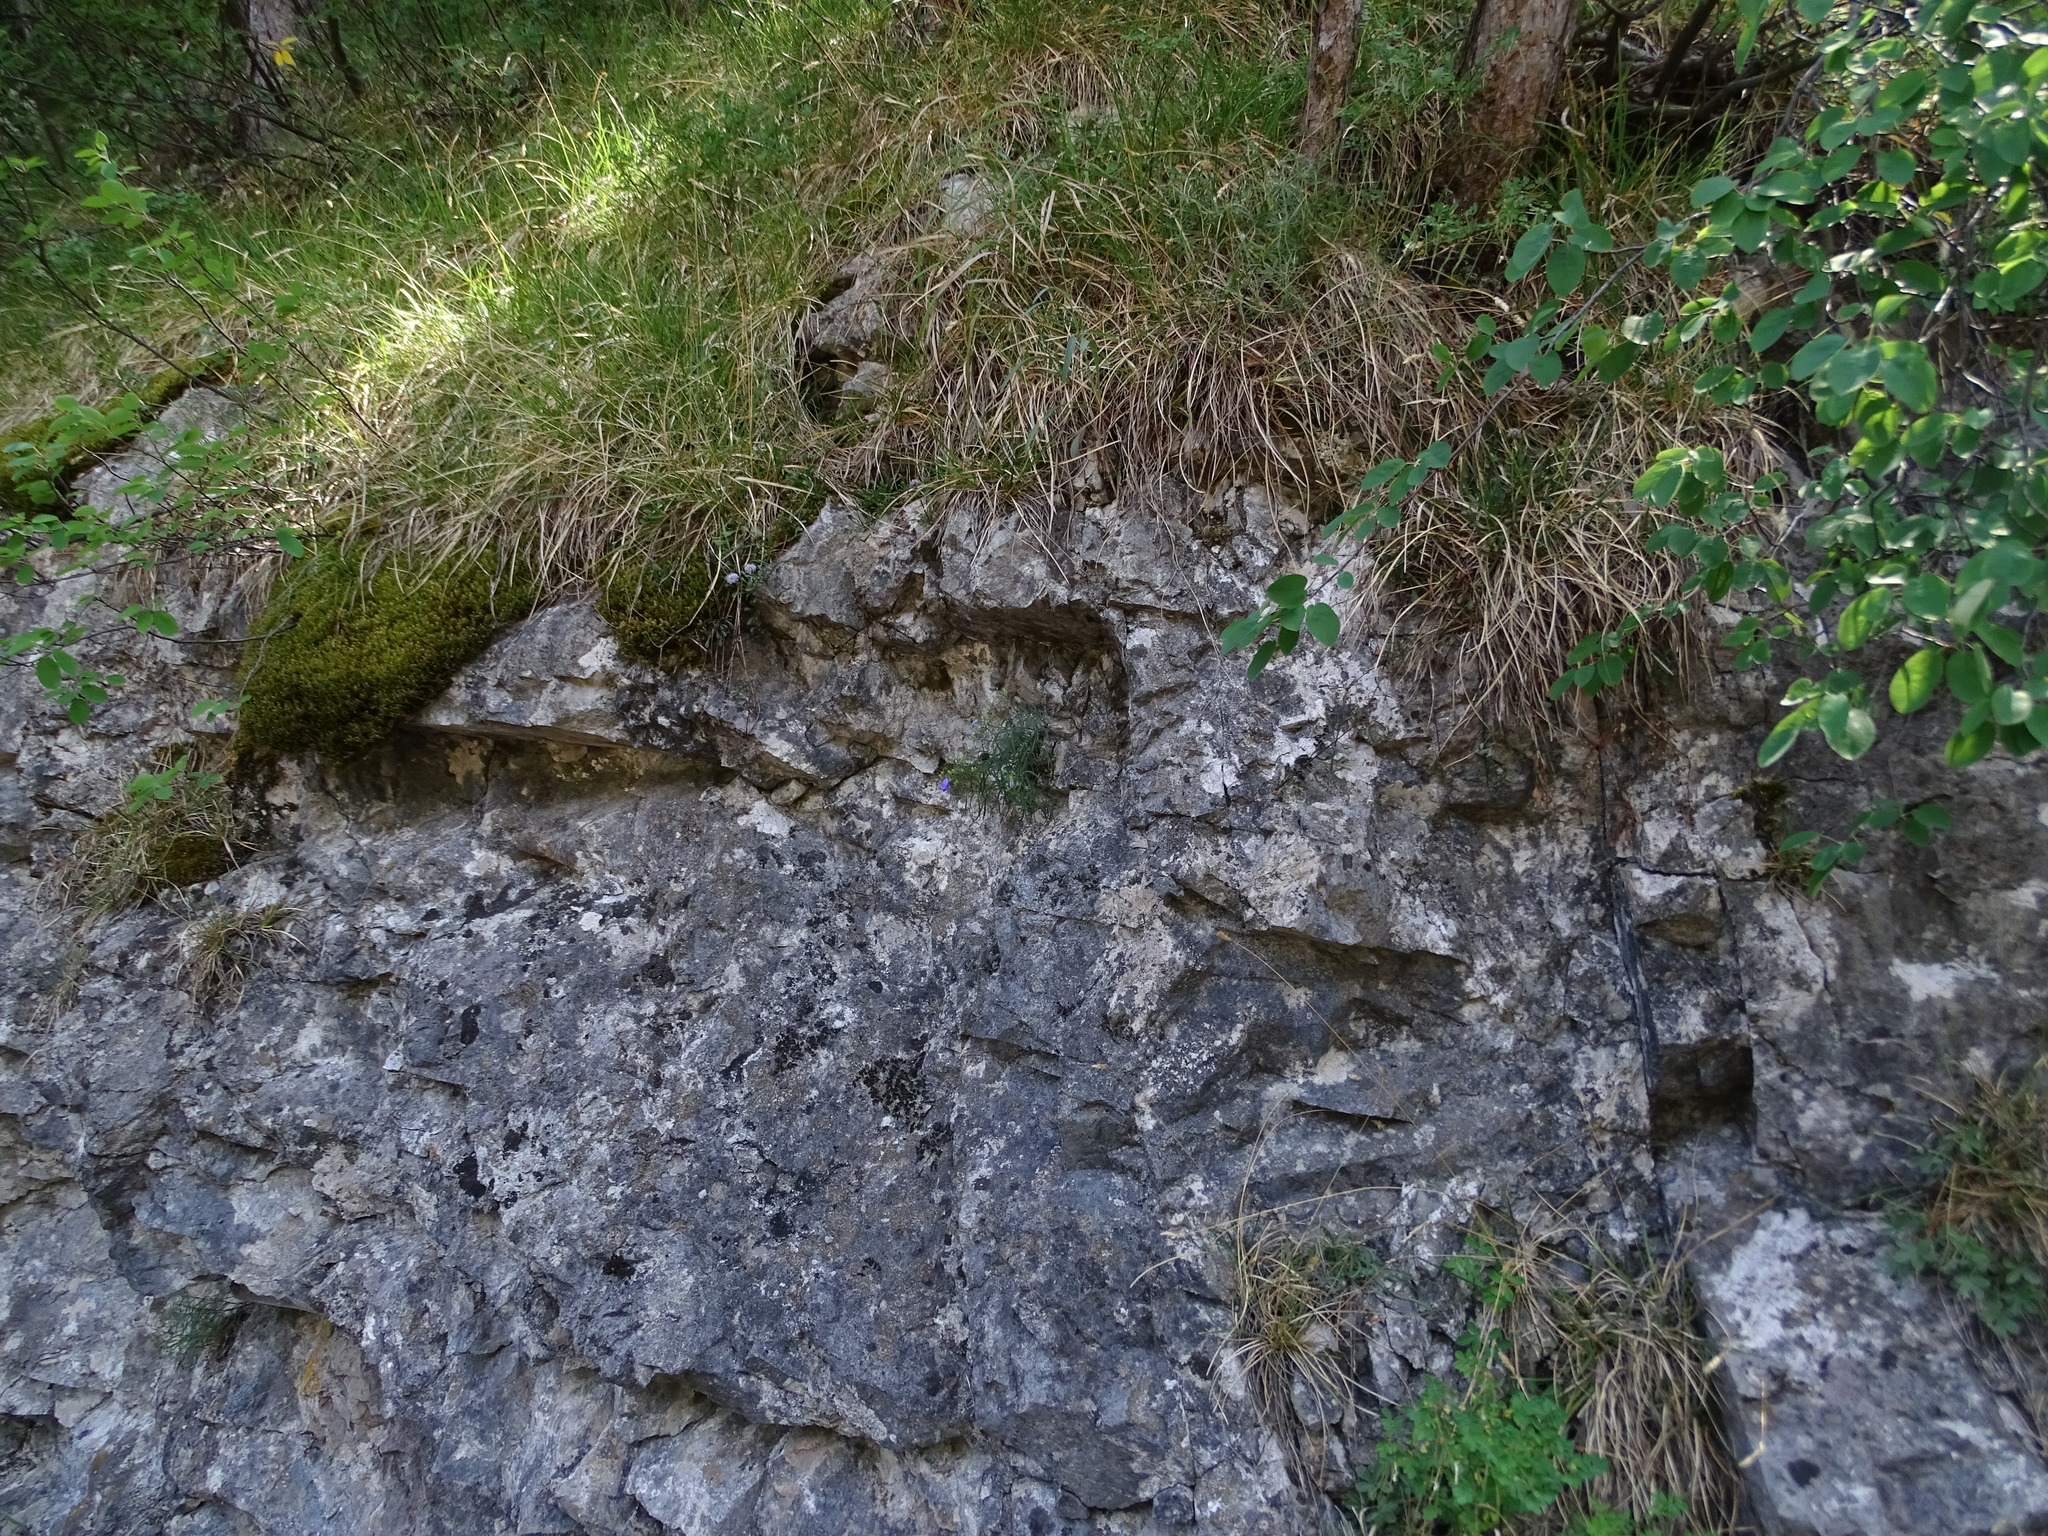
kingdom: Plantae
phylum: Tracheophyta
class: Magnoliopsida
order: Asterales
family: Campanulaceae
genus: Campanula
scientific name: Campanula praesignis
